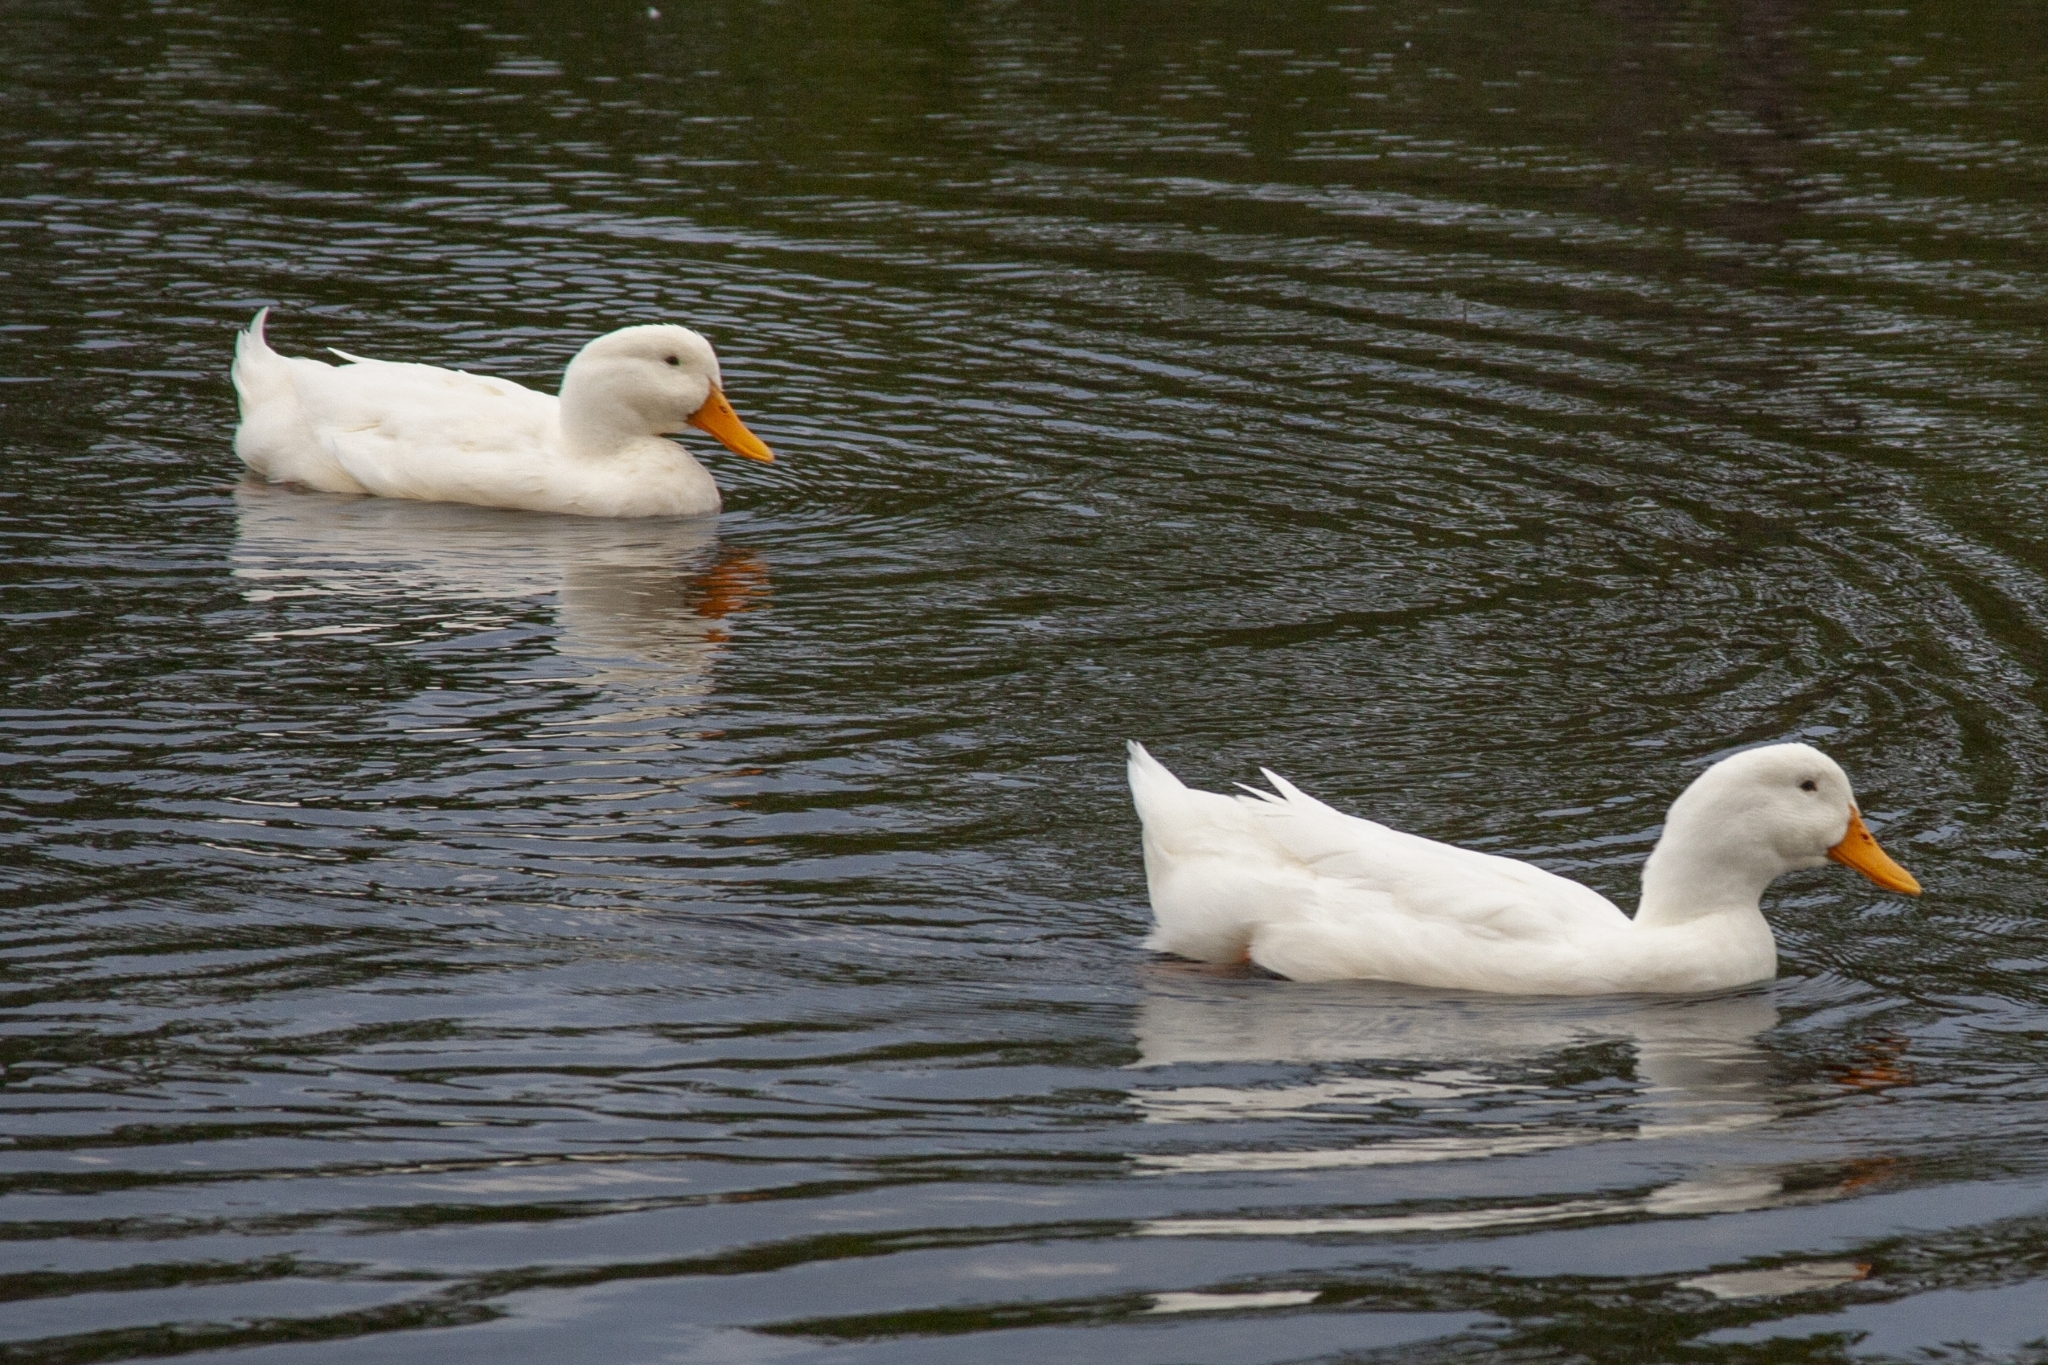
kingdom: Animalia
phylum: Chordata
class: Aves
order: Anseriformes
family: Anatidae
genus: Anas
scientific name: Anas platyrhynchos
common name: Mallard
